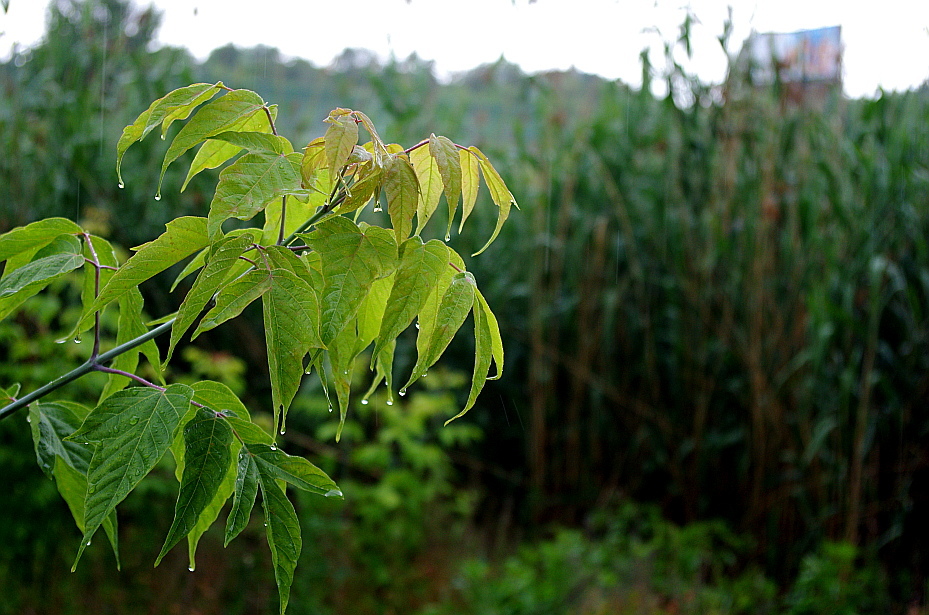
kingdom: Plantae
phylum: Tracheophyta
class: Magnoliopsida
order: Sapindales
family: Sapindaceae
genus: Acer
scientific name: Acer negundo
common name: Ashleaf maple
